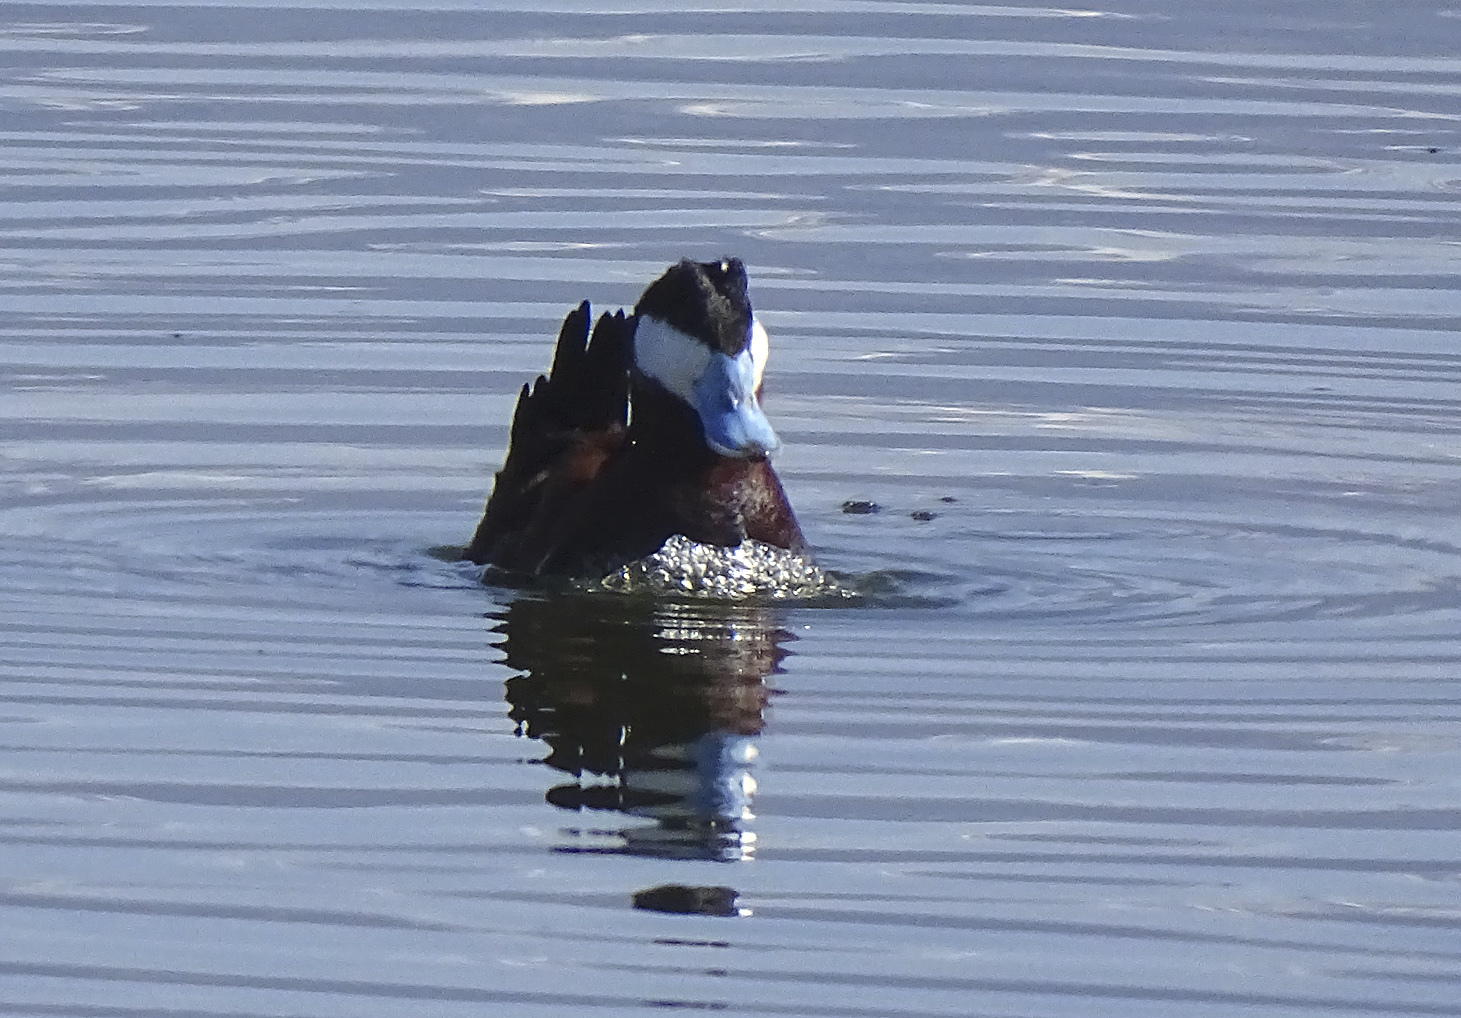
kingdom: Animalia
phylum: Chordata
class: Aves
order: Anseriformes
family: Anatidae
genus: Oxyura
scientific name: Oxyura jamaicensis
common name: Ruddy duck
